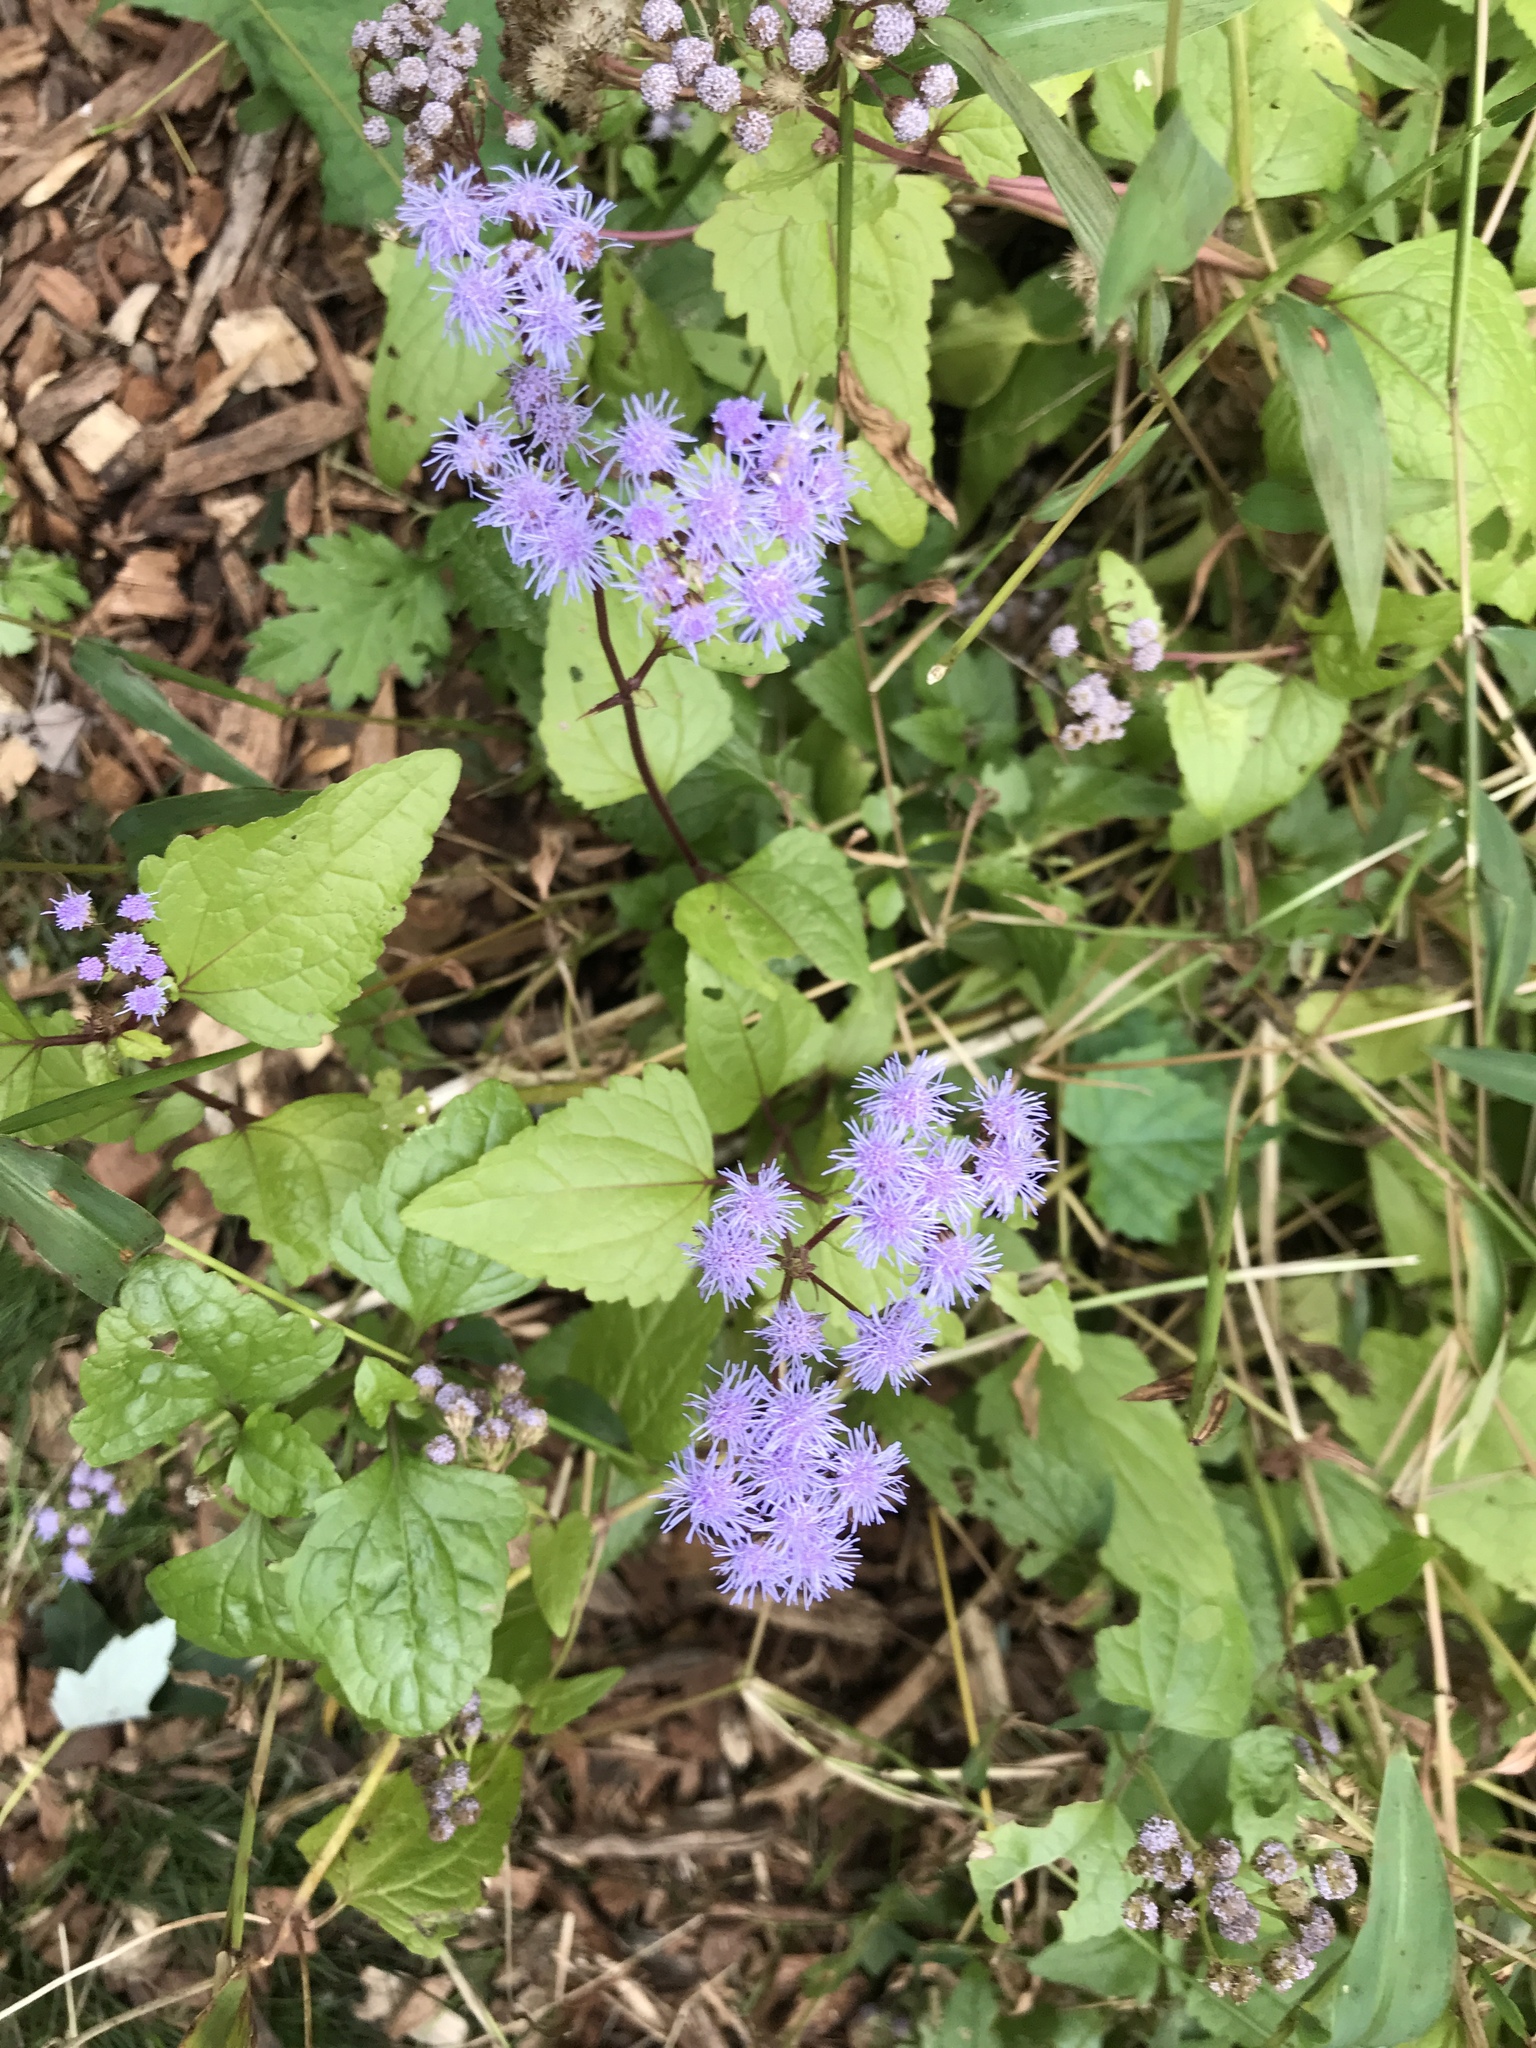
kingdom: Plantae
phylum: Tracheophyta
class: Magnoliopsida
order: Asterales
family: Asteraceae
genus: Conoclinium
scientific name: Conoclinium coelestinum
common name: Blue mistflower
